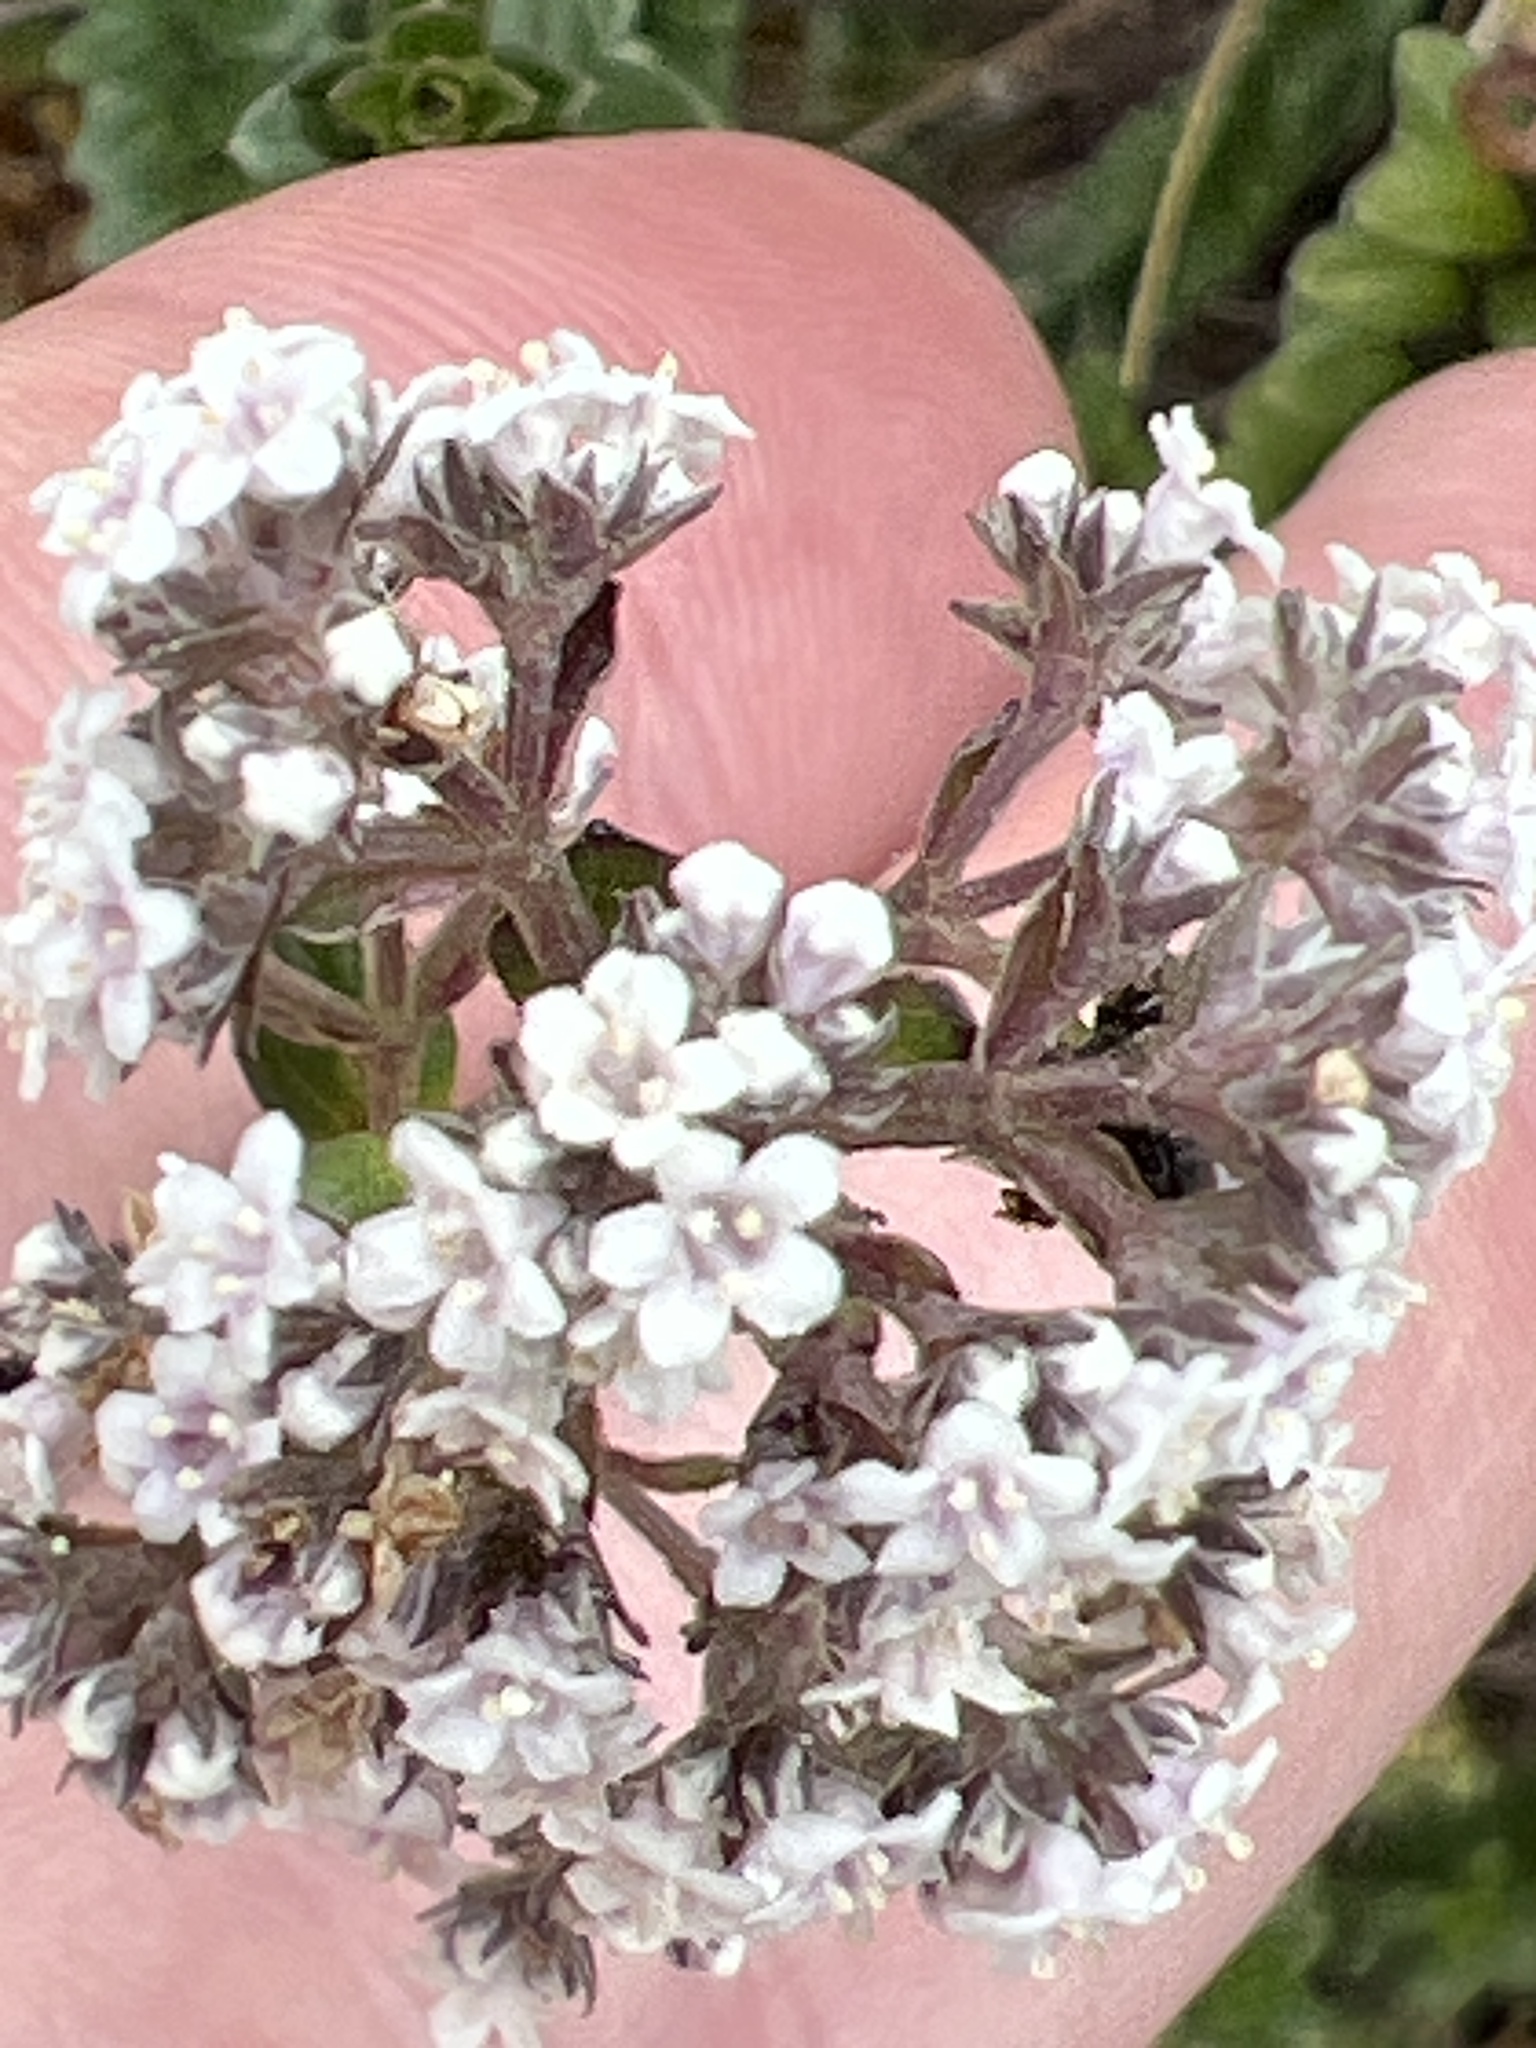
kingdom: Plantae
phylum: Tracheophyta
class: Magnoliopsida
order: Dipsacales
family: Caprifoliaceae
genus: Valeriana
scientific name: Valeriana microphylla
